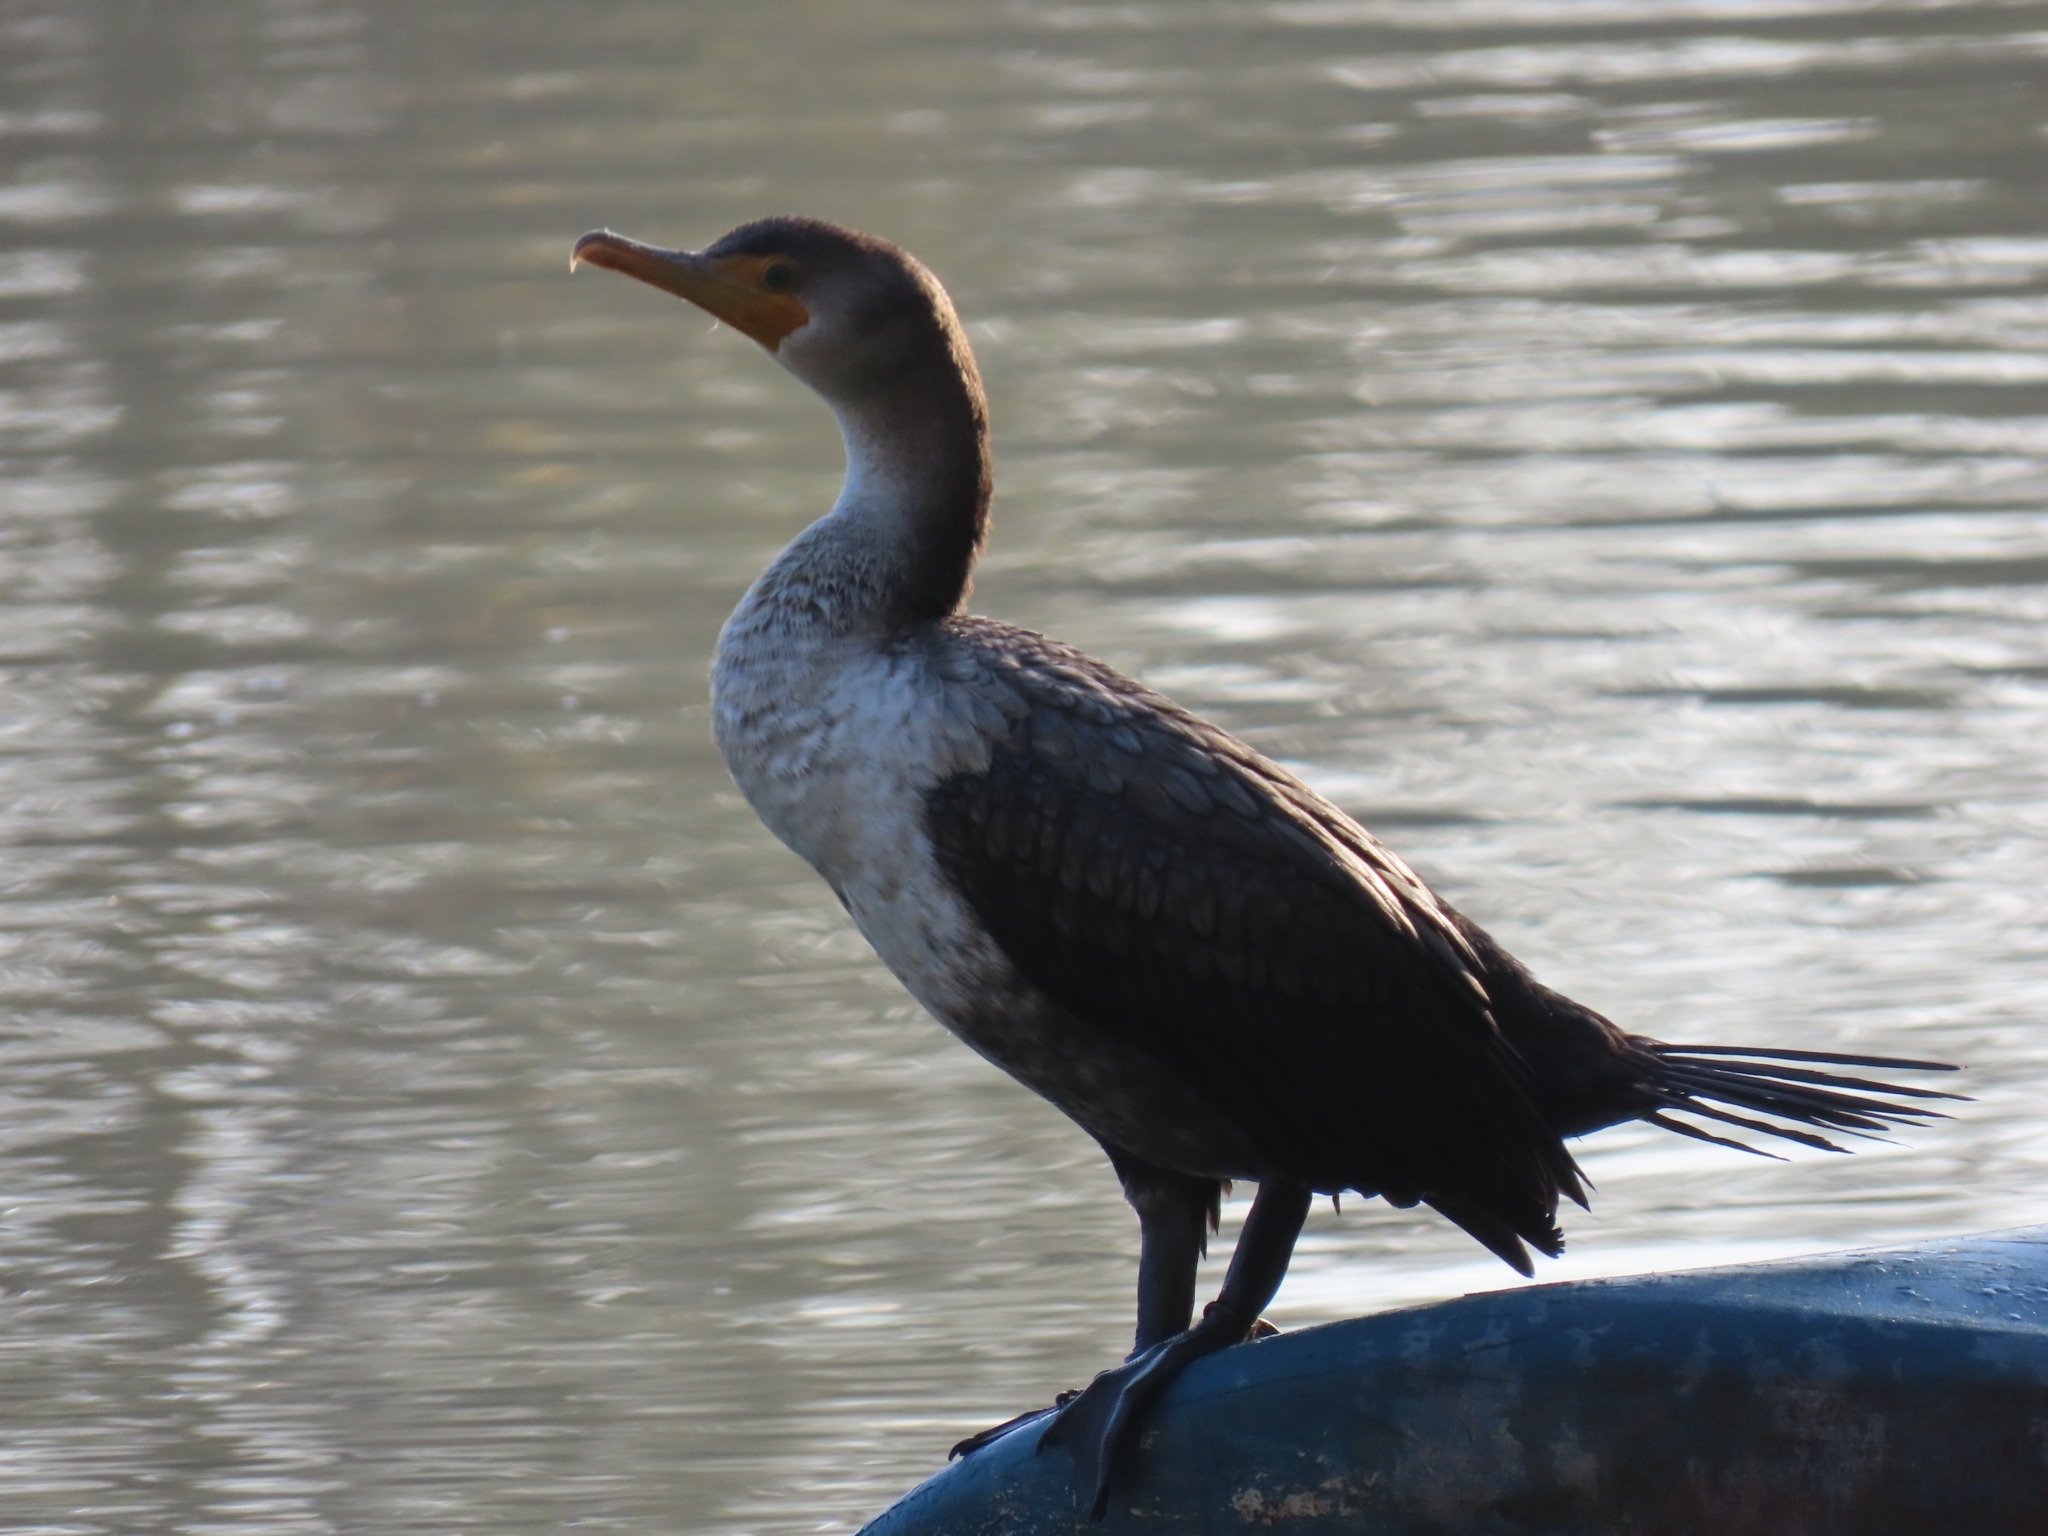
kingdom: Animalia
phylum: Chordata
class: Aves
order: Suliformes
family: Phalacrocoracidae
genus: Phalacrocorax
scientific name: Phalacrocorax auritus
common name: Double-crested cormorant
